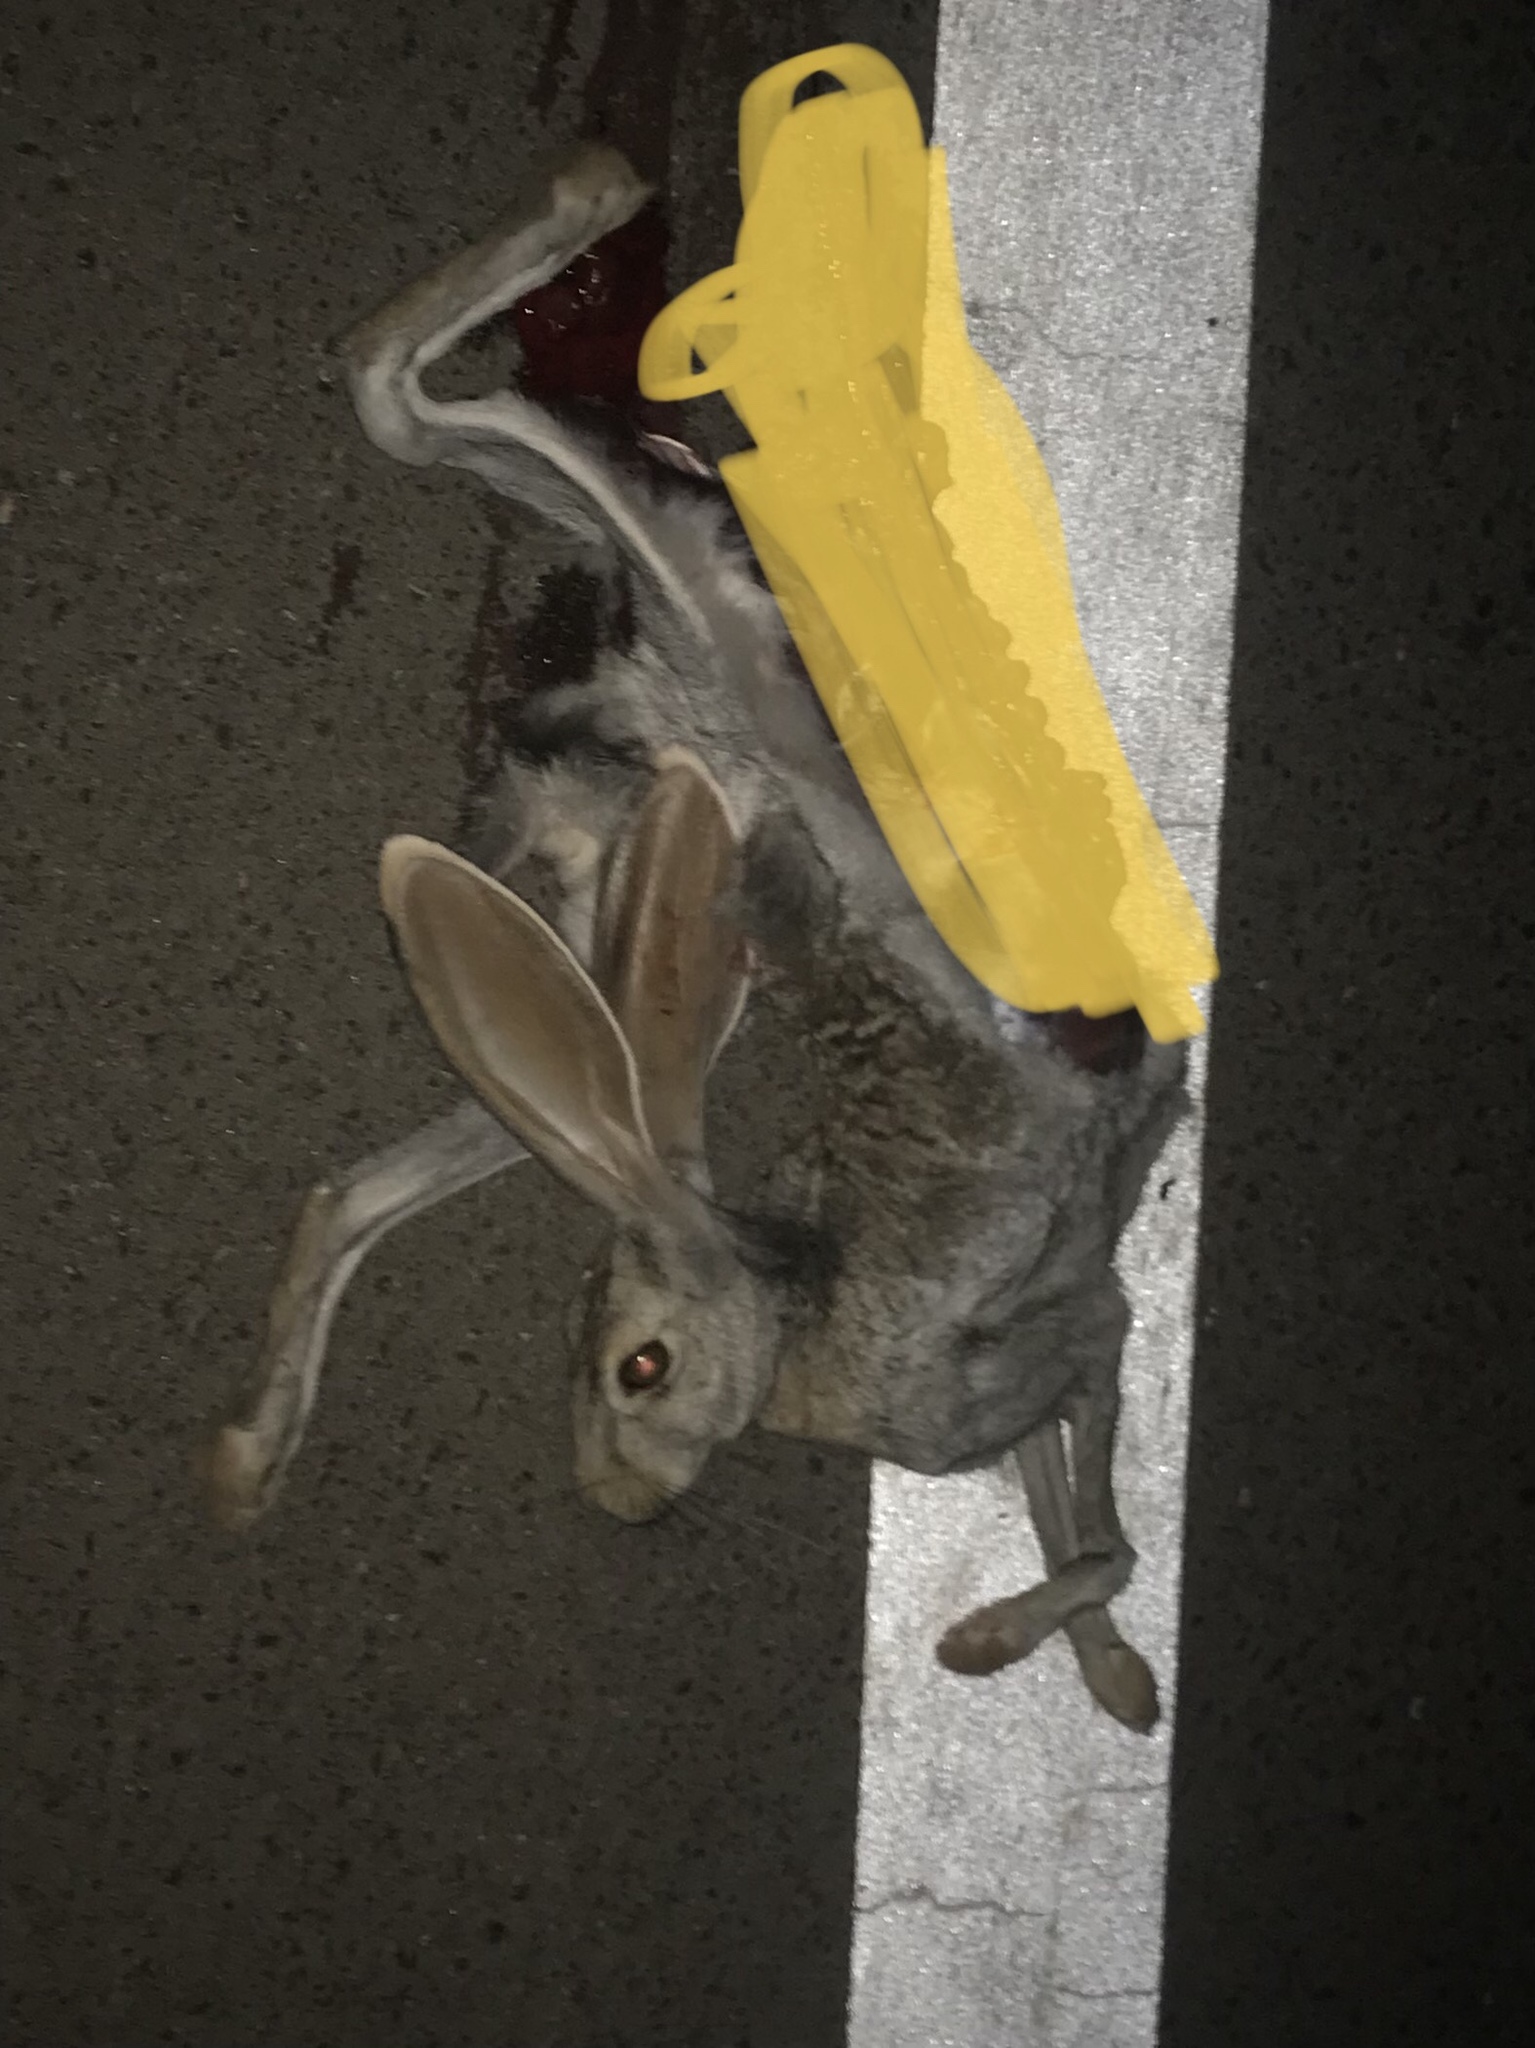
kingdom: Animalia
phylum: Chordata
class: Mammalia
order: Lagomorpha
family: Leporidae
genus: Lepus
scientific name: Lepus californicus
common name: Black-tailed jackrabbit
